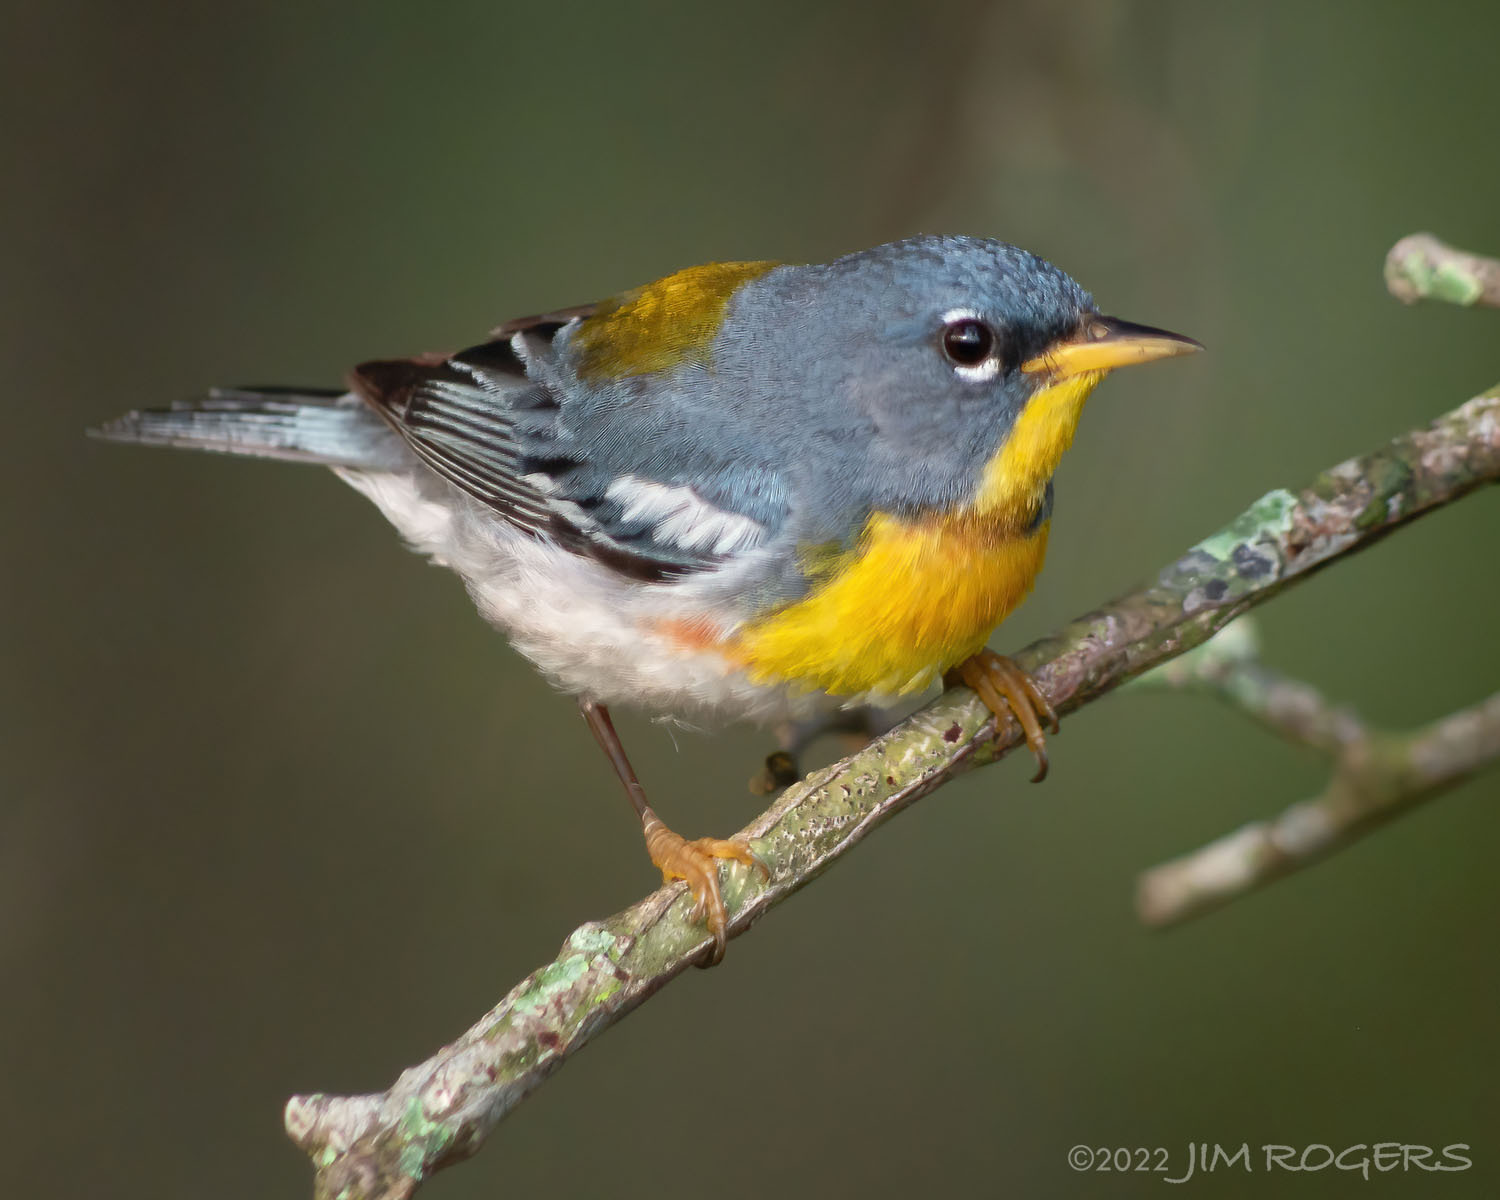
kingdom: Animalia
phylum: Chordata
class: Aves
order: Passeriformes
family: Parulidae
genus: Setophaga
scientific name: Setophaga americana
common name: Northern parula
